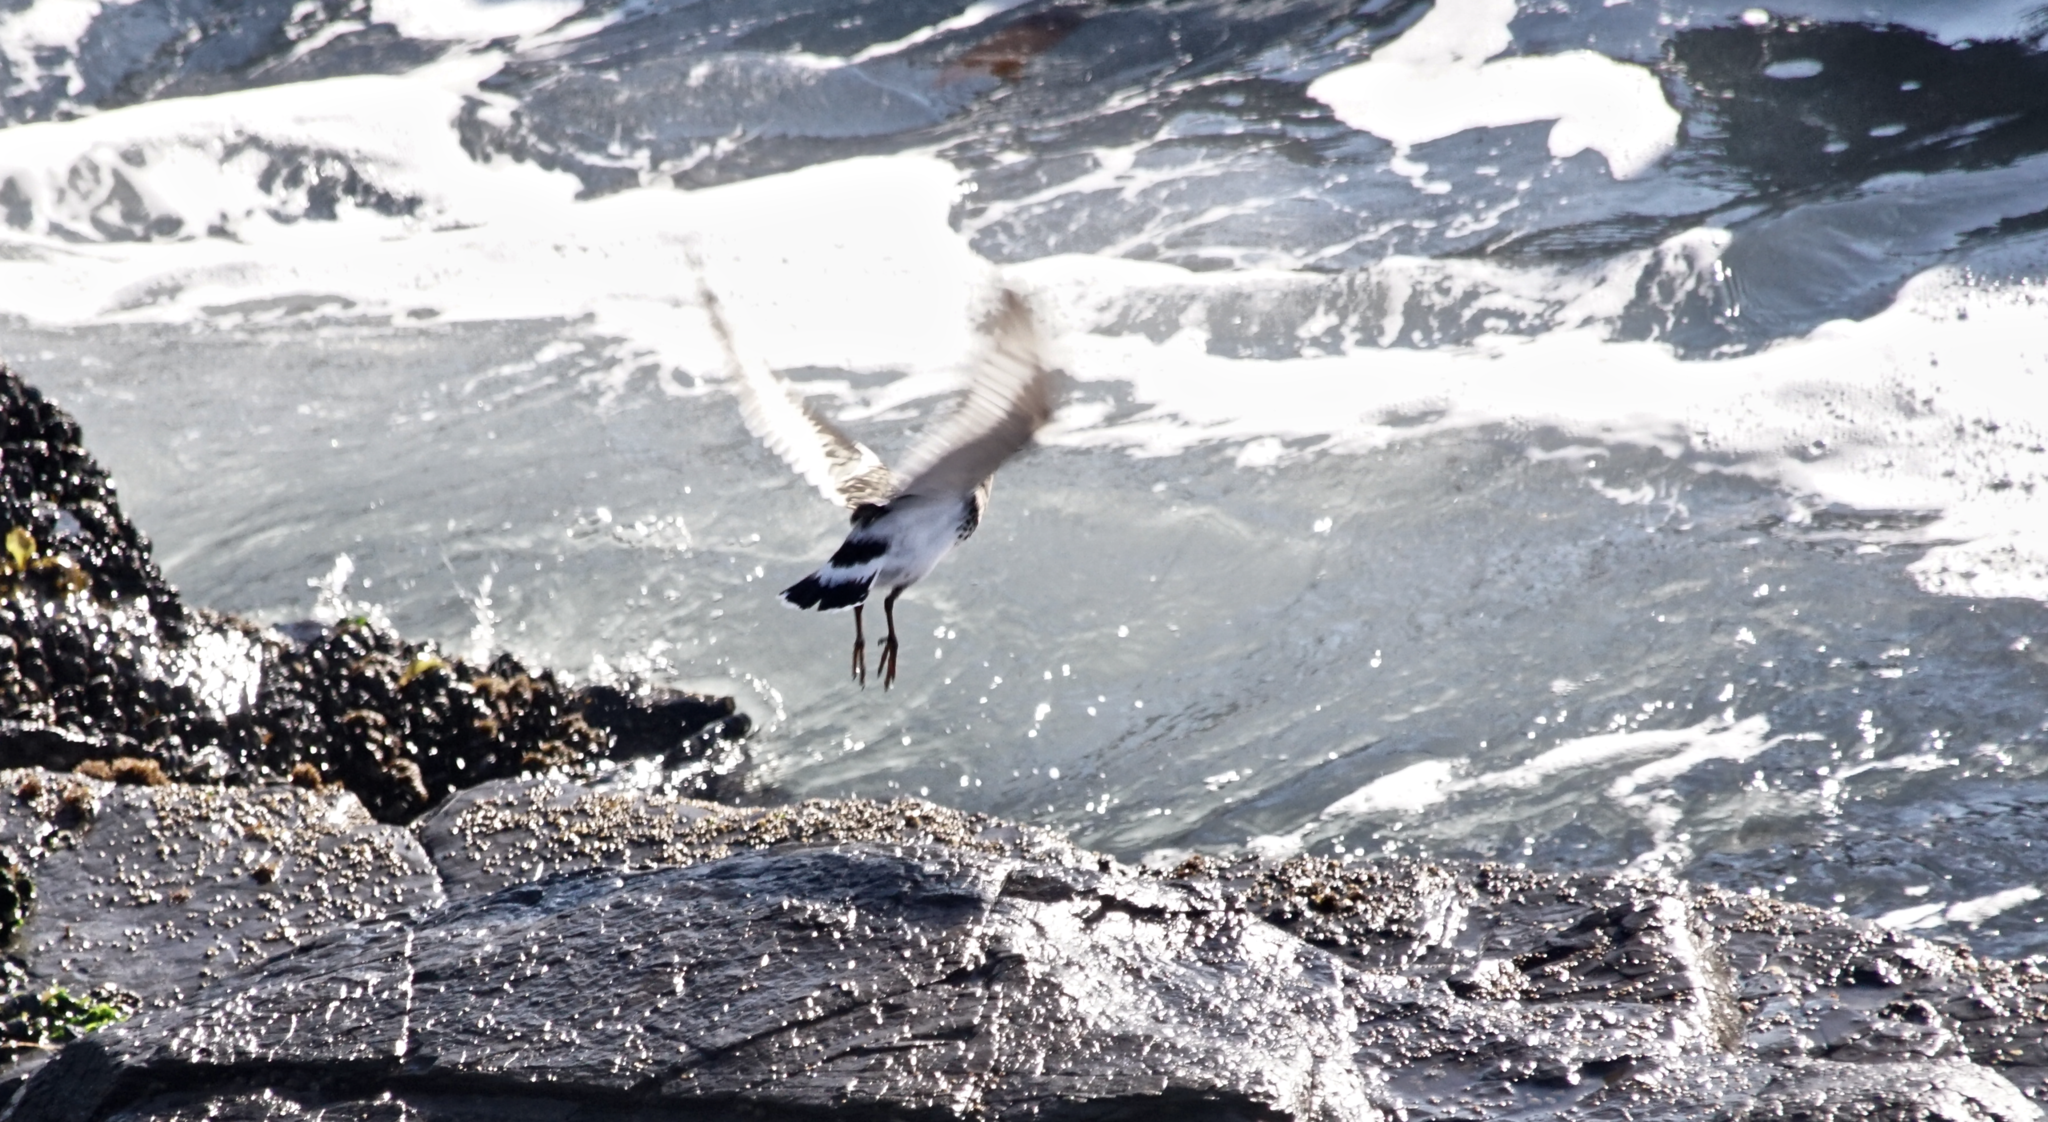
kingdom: Animalia
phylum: Chordata
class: Aves
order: Charadriiformes
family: Scolopacidae
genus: Arenaria
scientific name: Arenaria melanocephala
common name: Black turnstone
